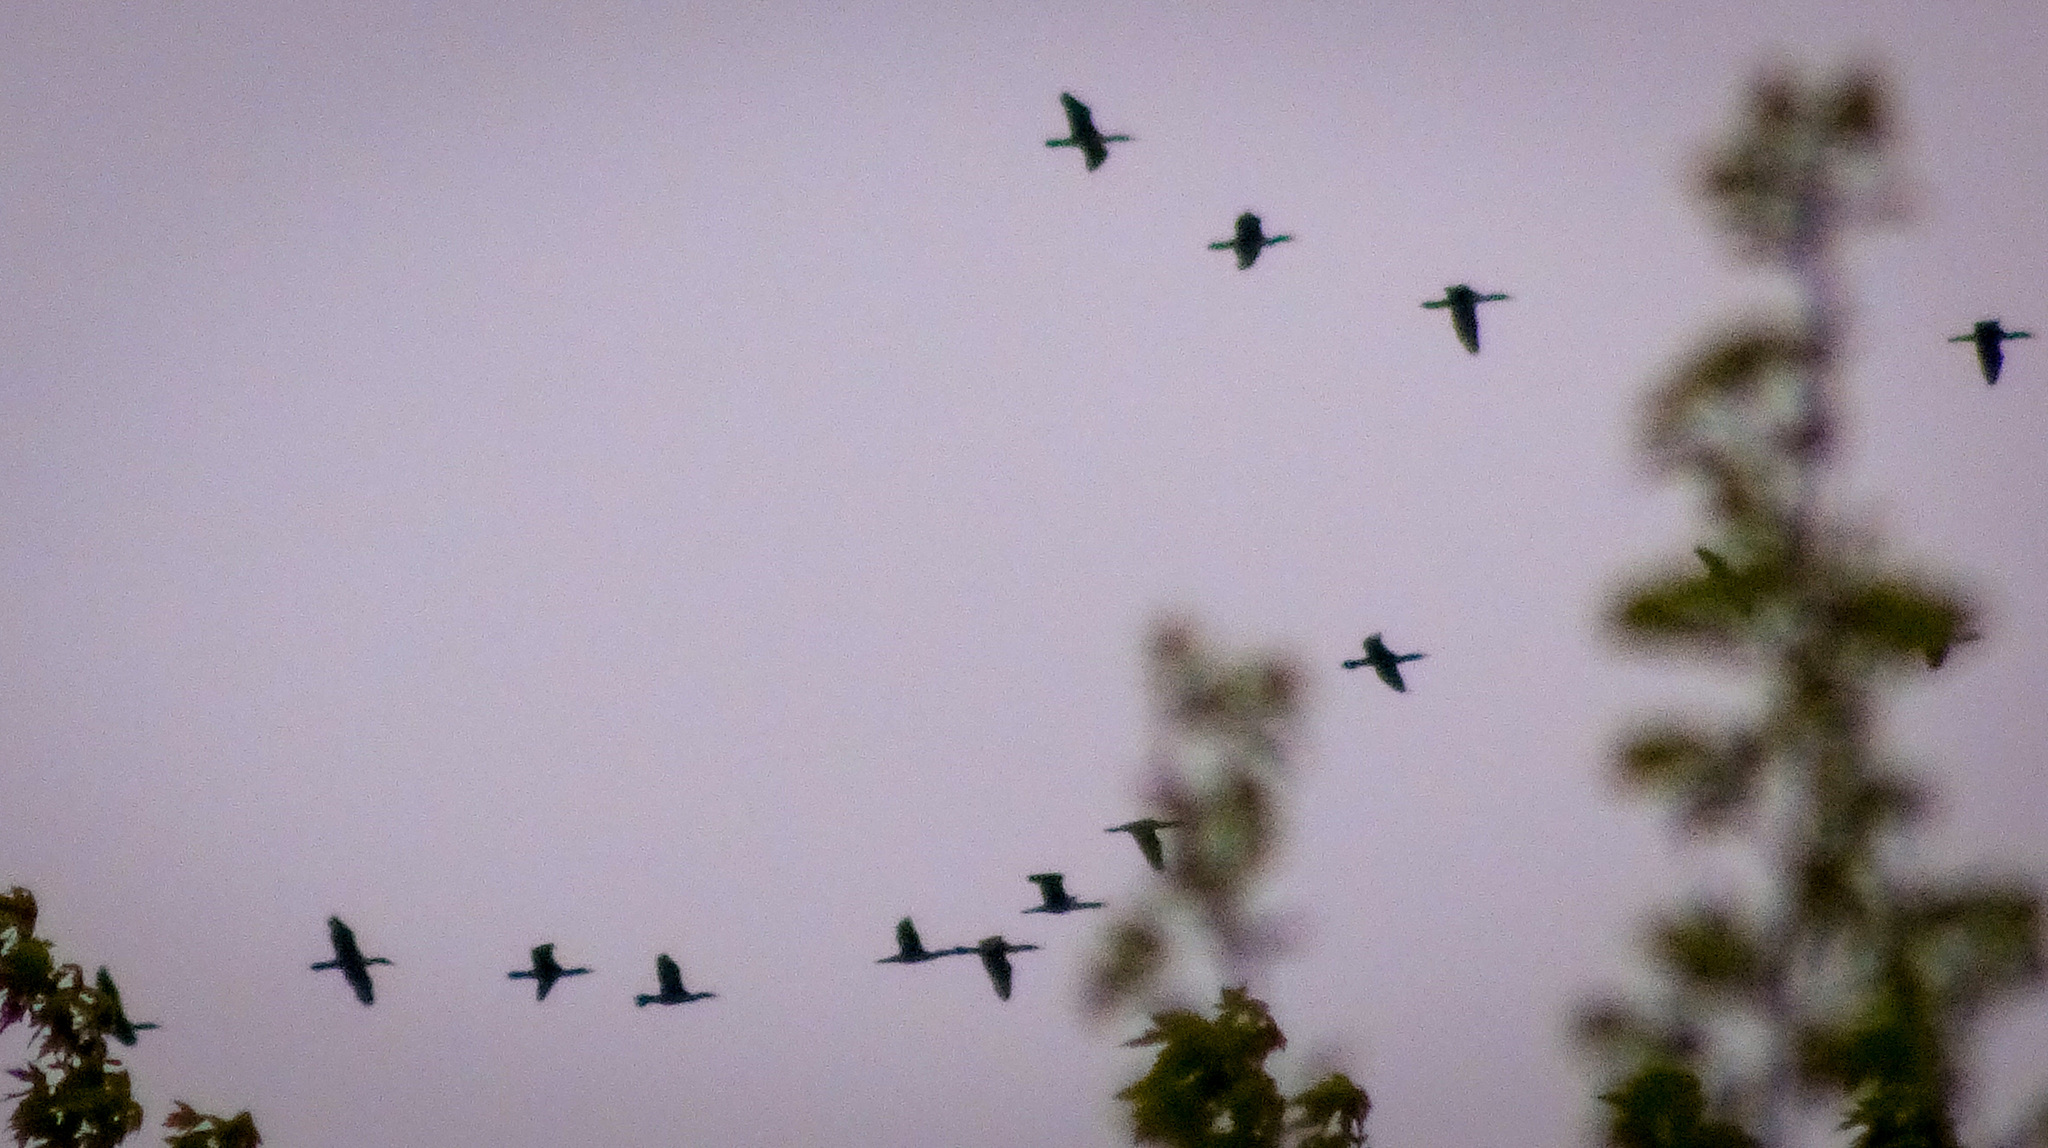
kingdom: Animalia
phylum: Chordata
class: Aves
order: Suliformes
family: Phalacrocoracidae
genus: Phalacrocorax
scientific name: Phalacrocorax auritus
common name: Double-crested cormorant
